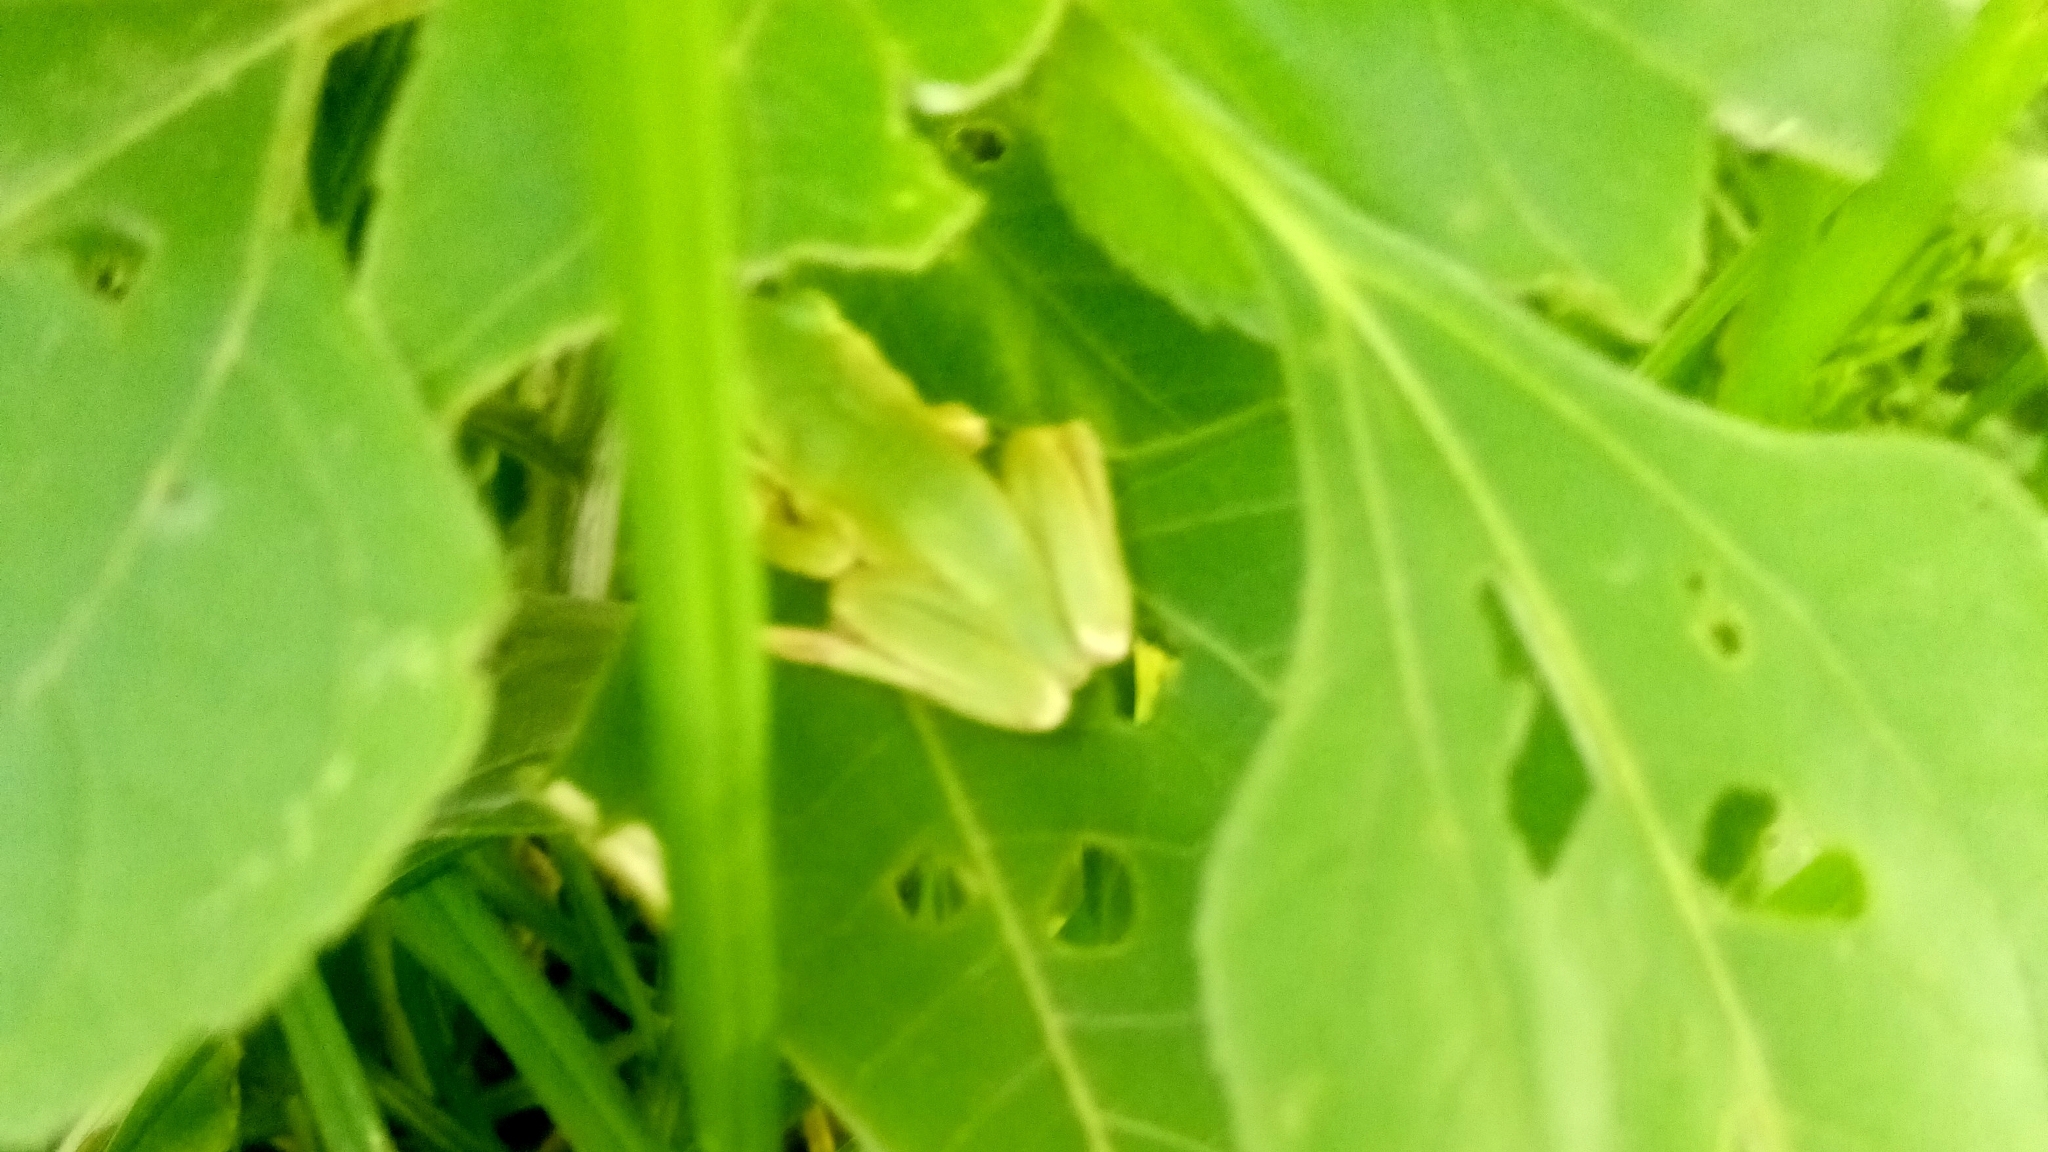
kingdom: Animalia
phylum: Chordata
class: Amphibia
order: Anura
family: Hylidae
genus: Dryophytes
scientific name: Dryophytes eximius
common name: Mountain treefrog
